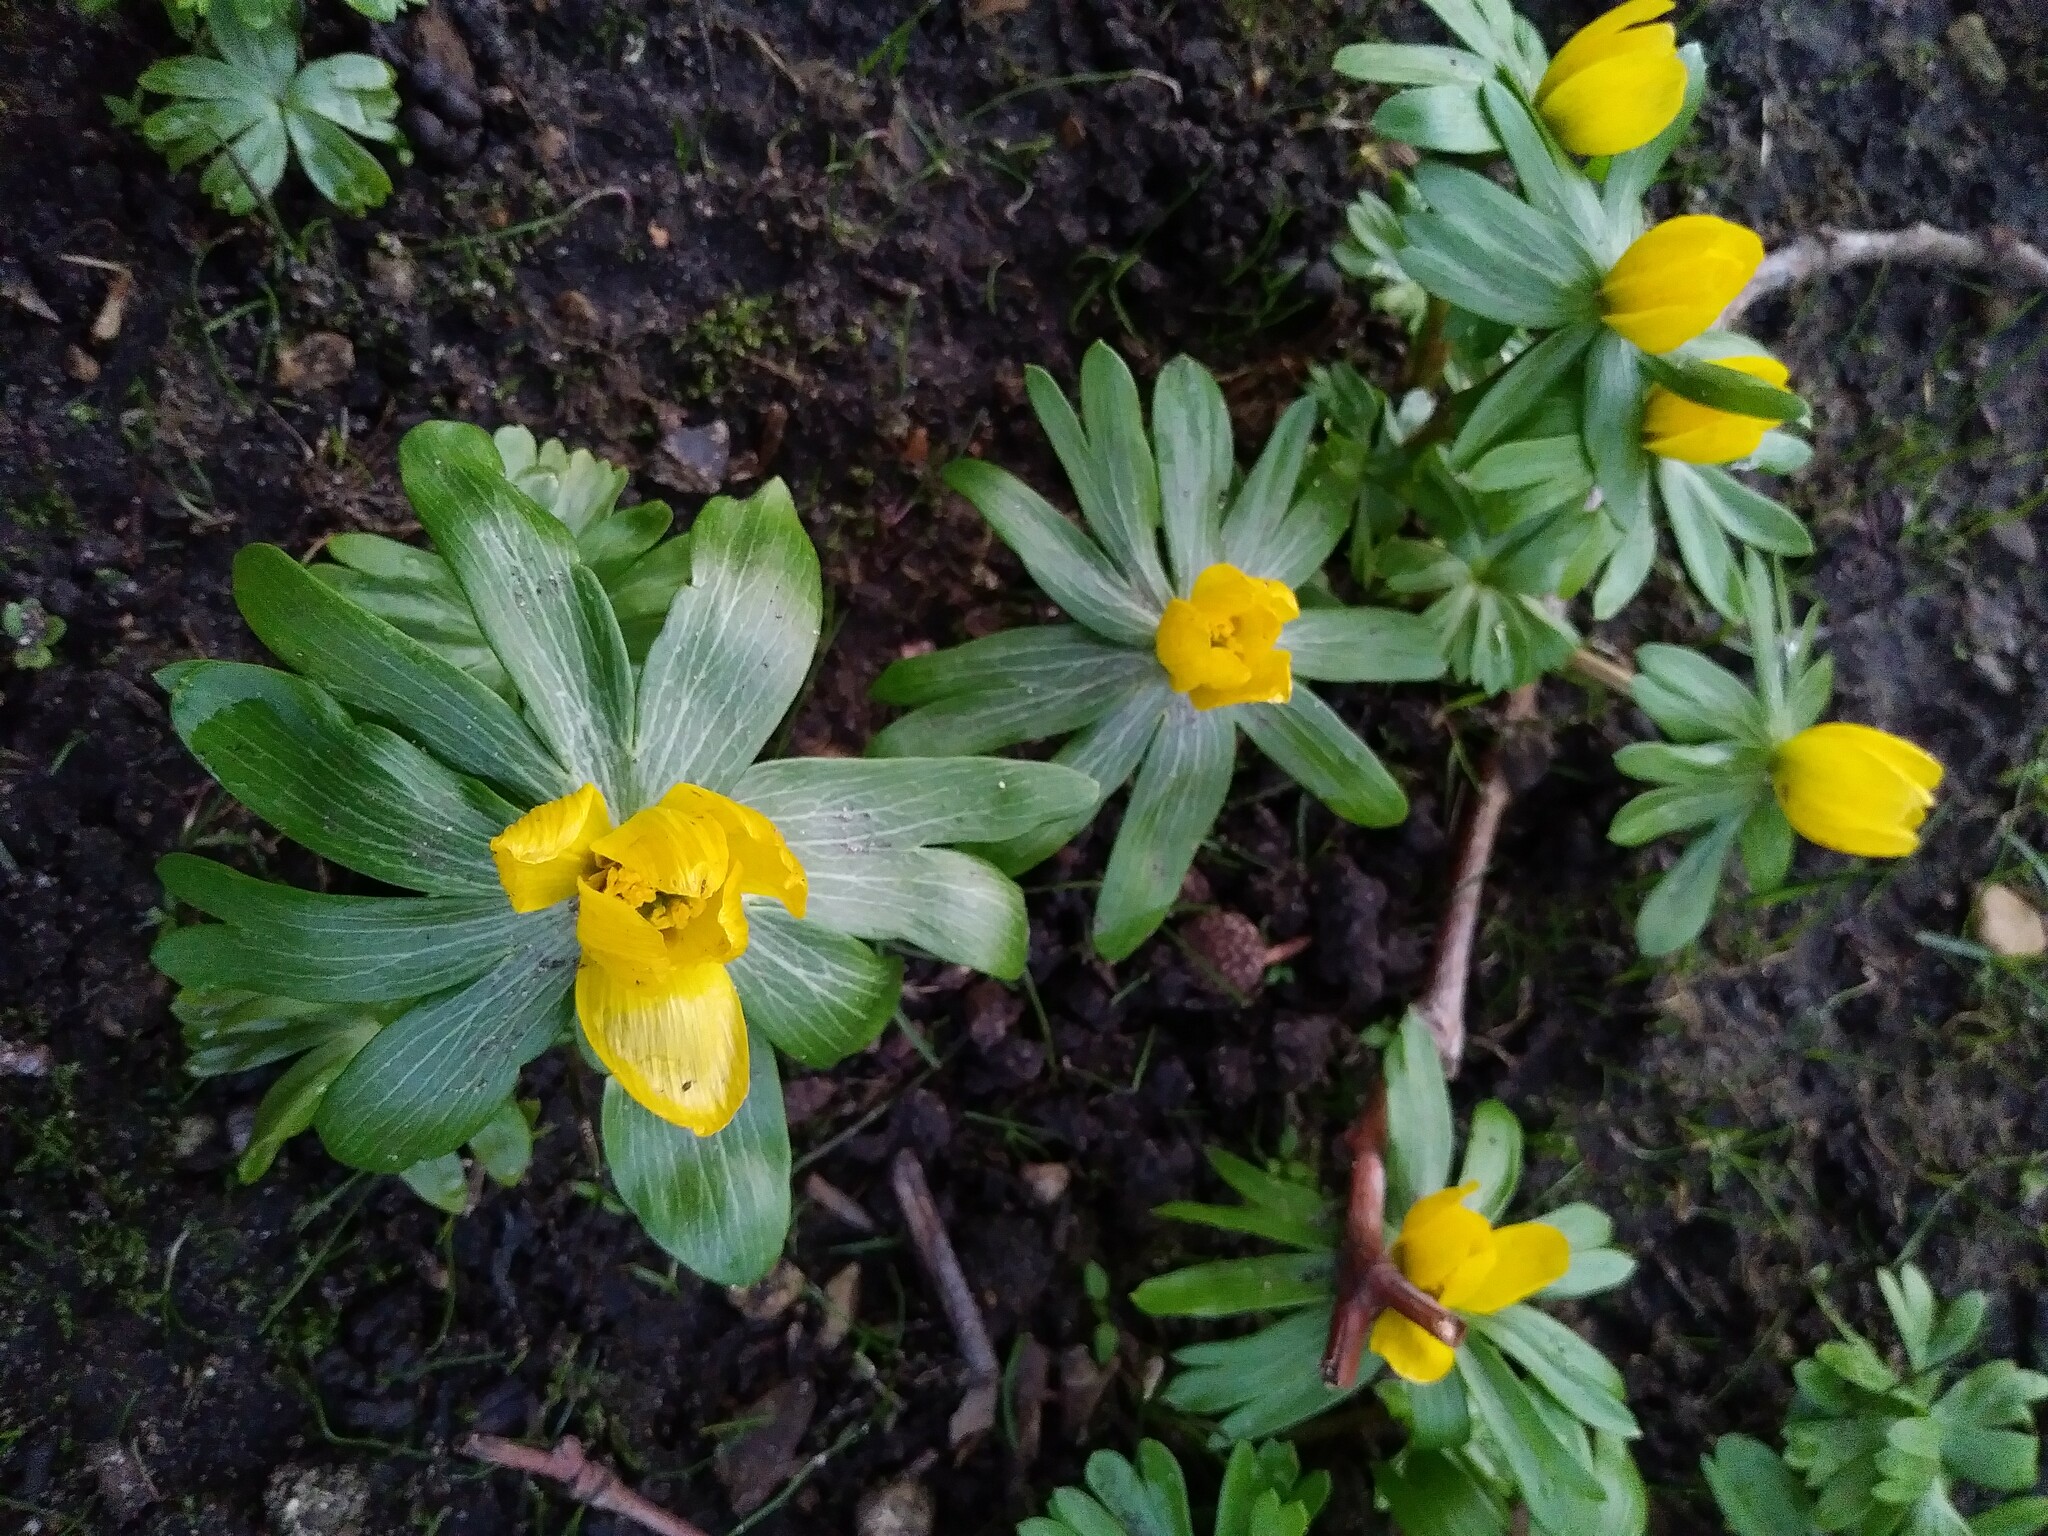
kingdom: Plantae
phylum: Tracheophyta
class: Magnoliopsida
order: Ranunculales
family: Ranunculaceae
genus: Eranthis
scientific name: Eranthis hyemalis
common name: Winter aconite
